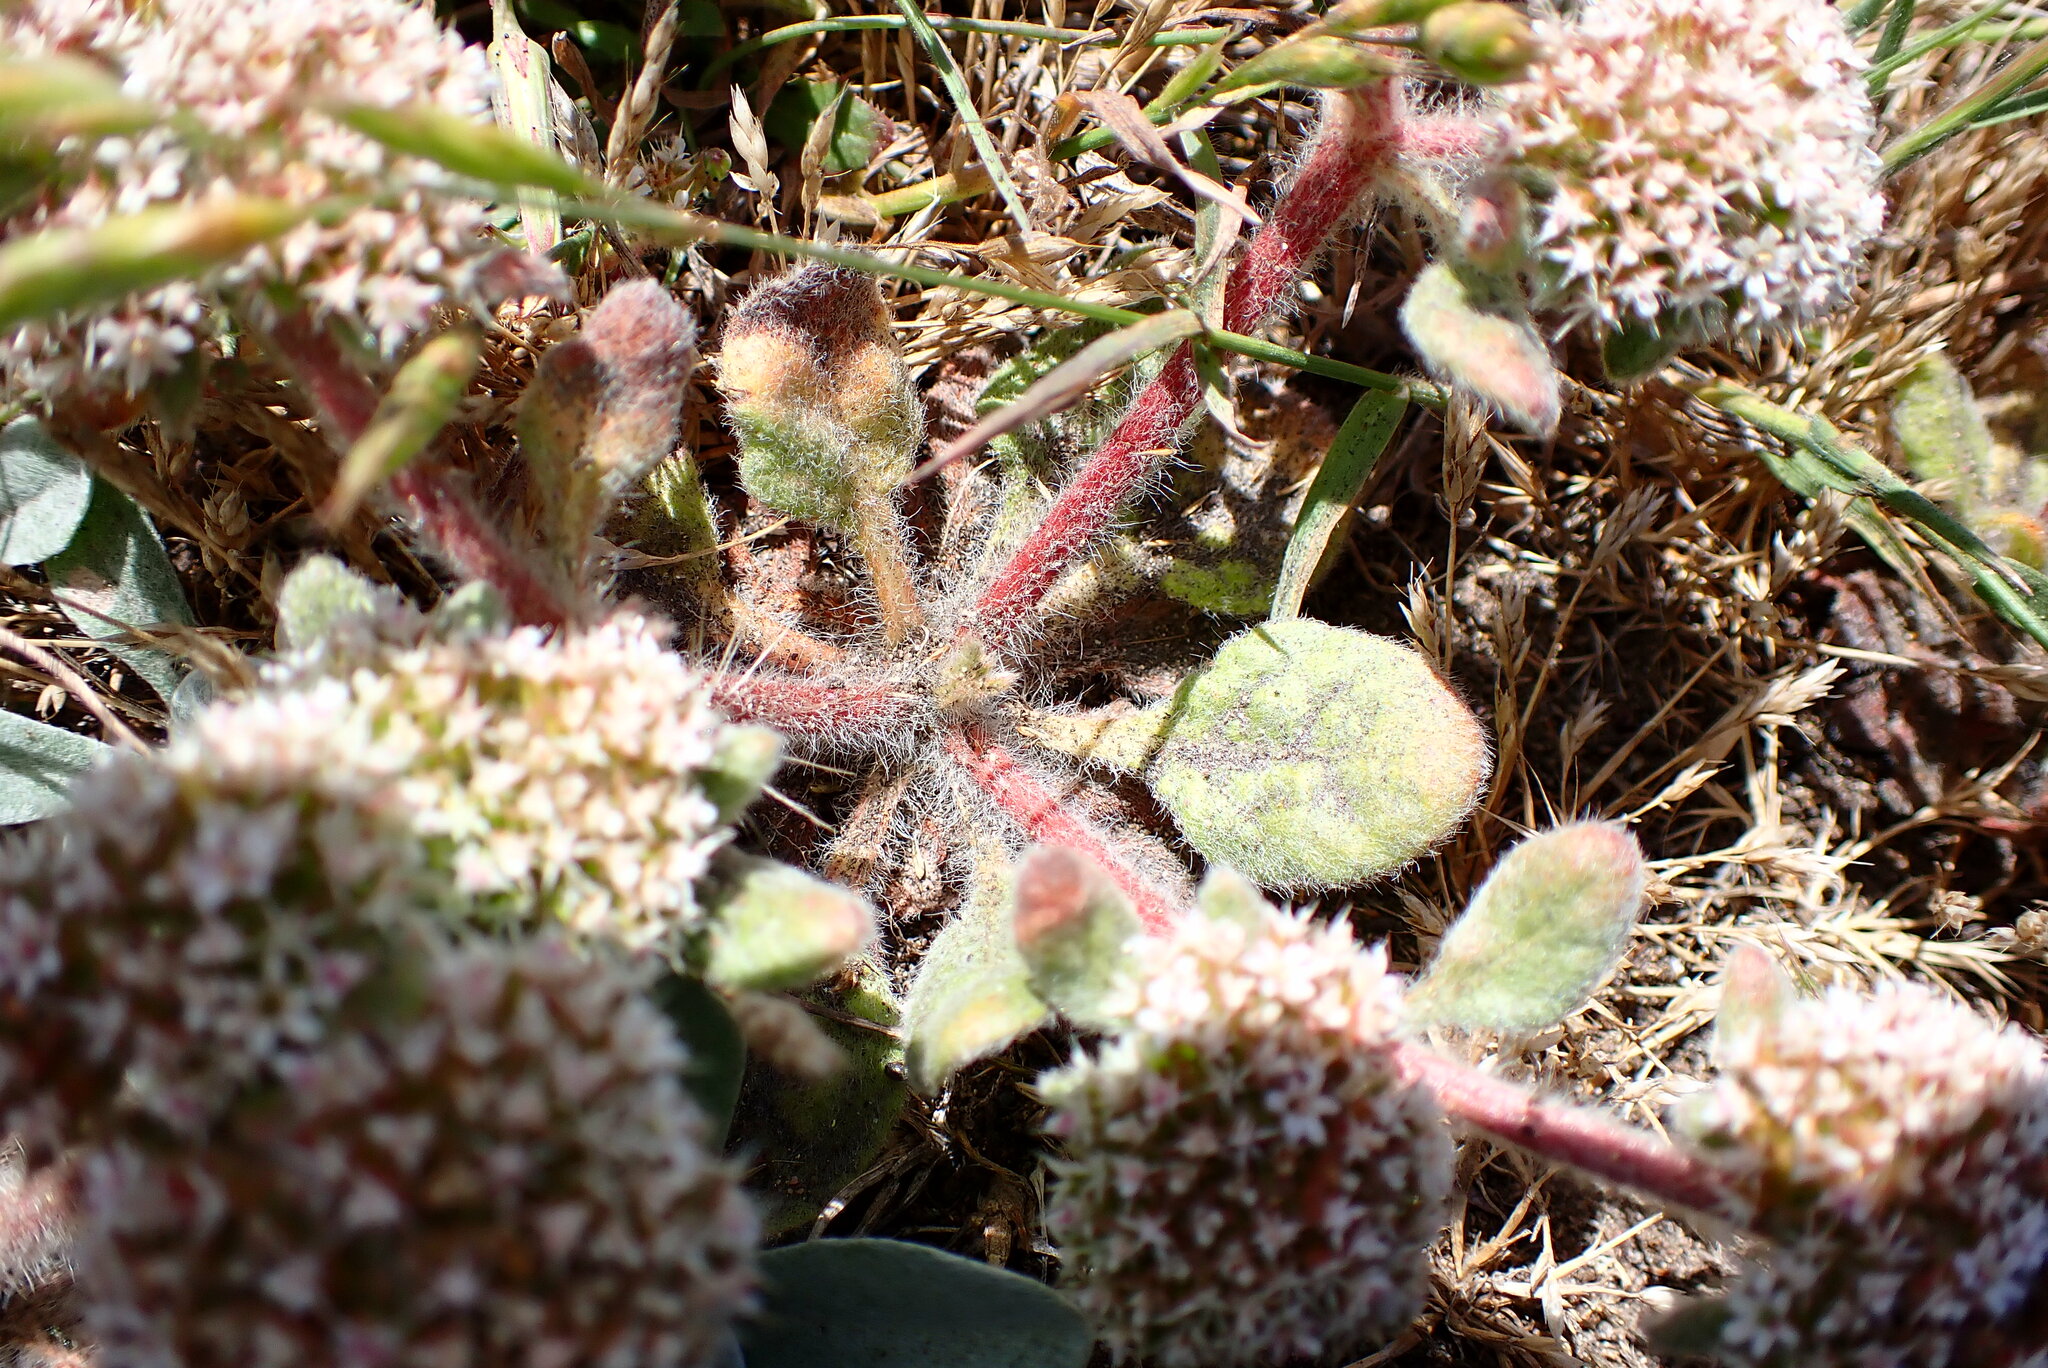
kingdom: Plantae
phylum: Tracheophyta
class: Magnoliopsida
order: Caryophyllales
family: Polygonaceae
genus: Chorizanthe
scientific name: Chorizanthe howellii
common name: Howell's spineflower
